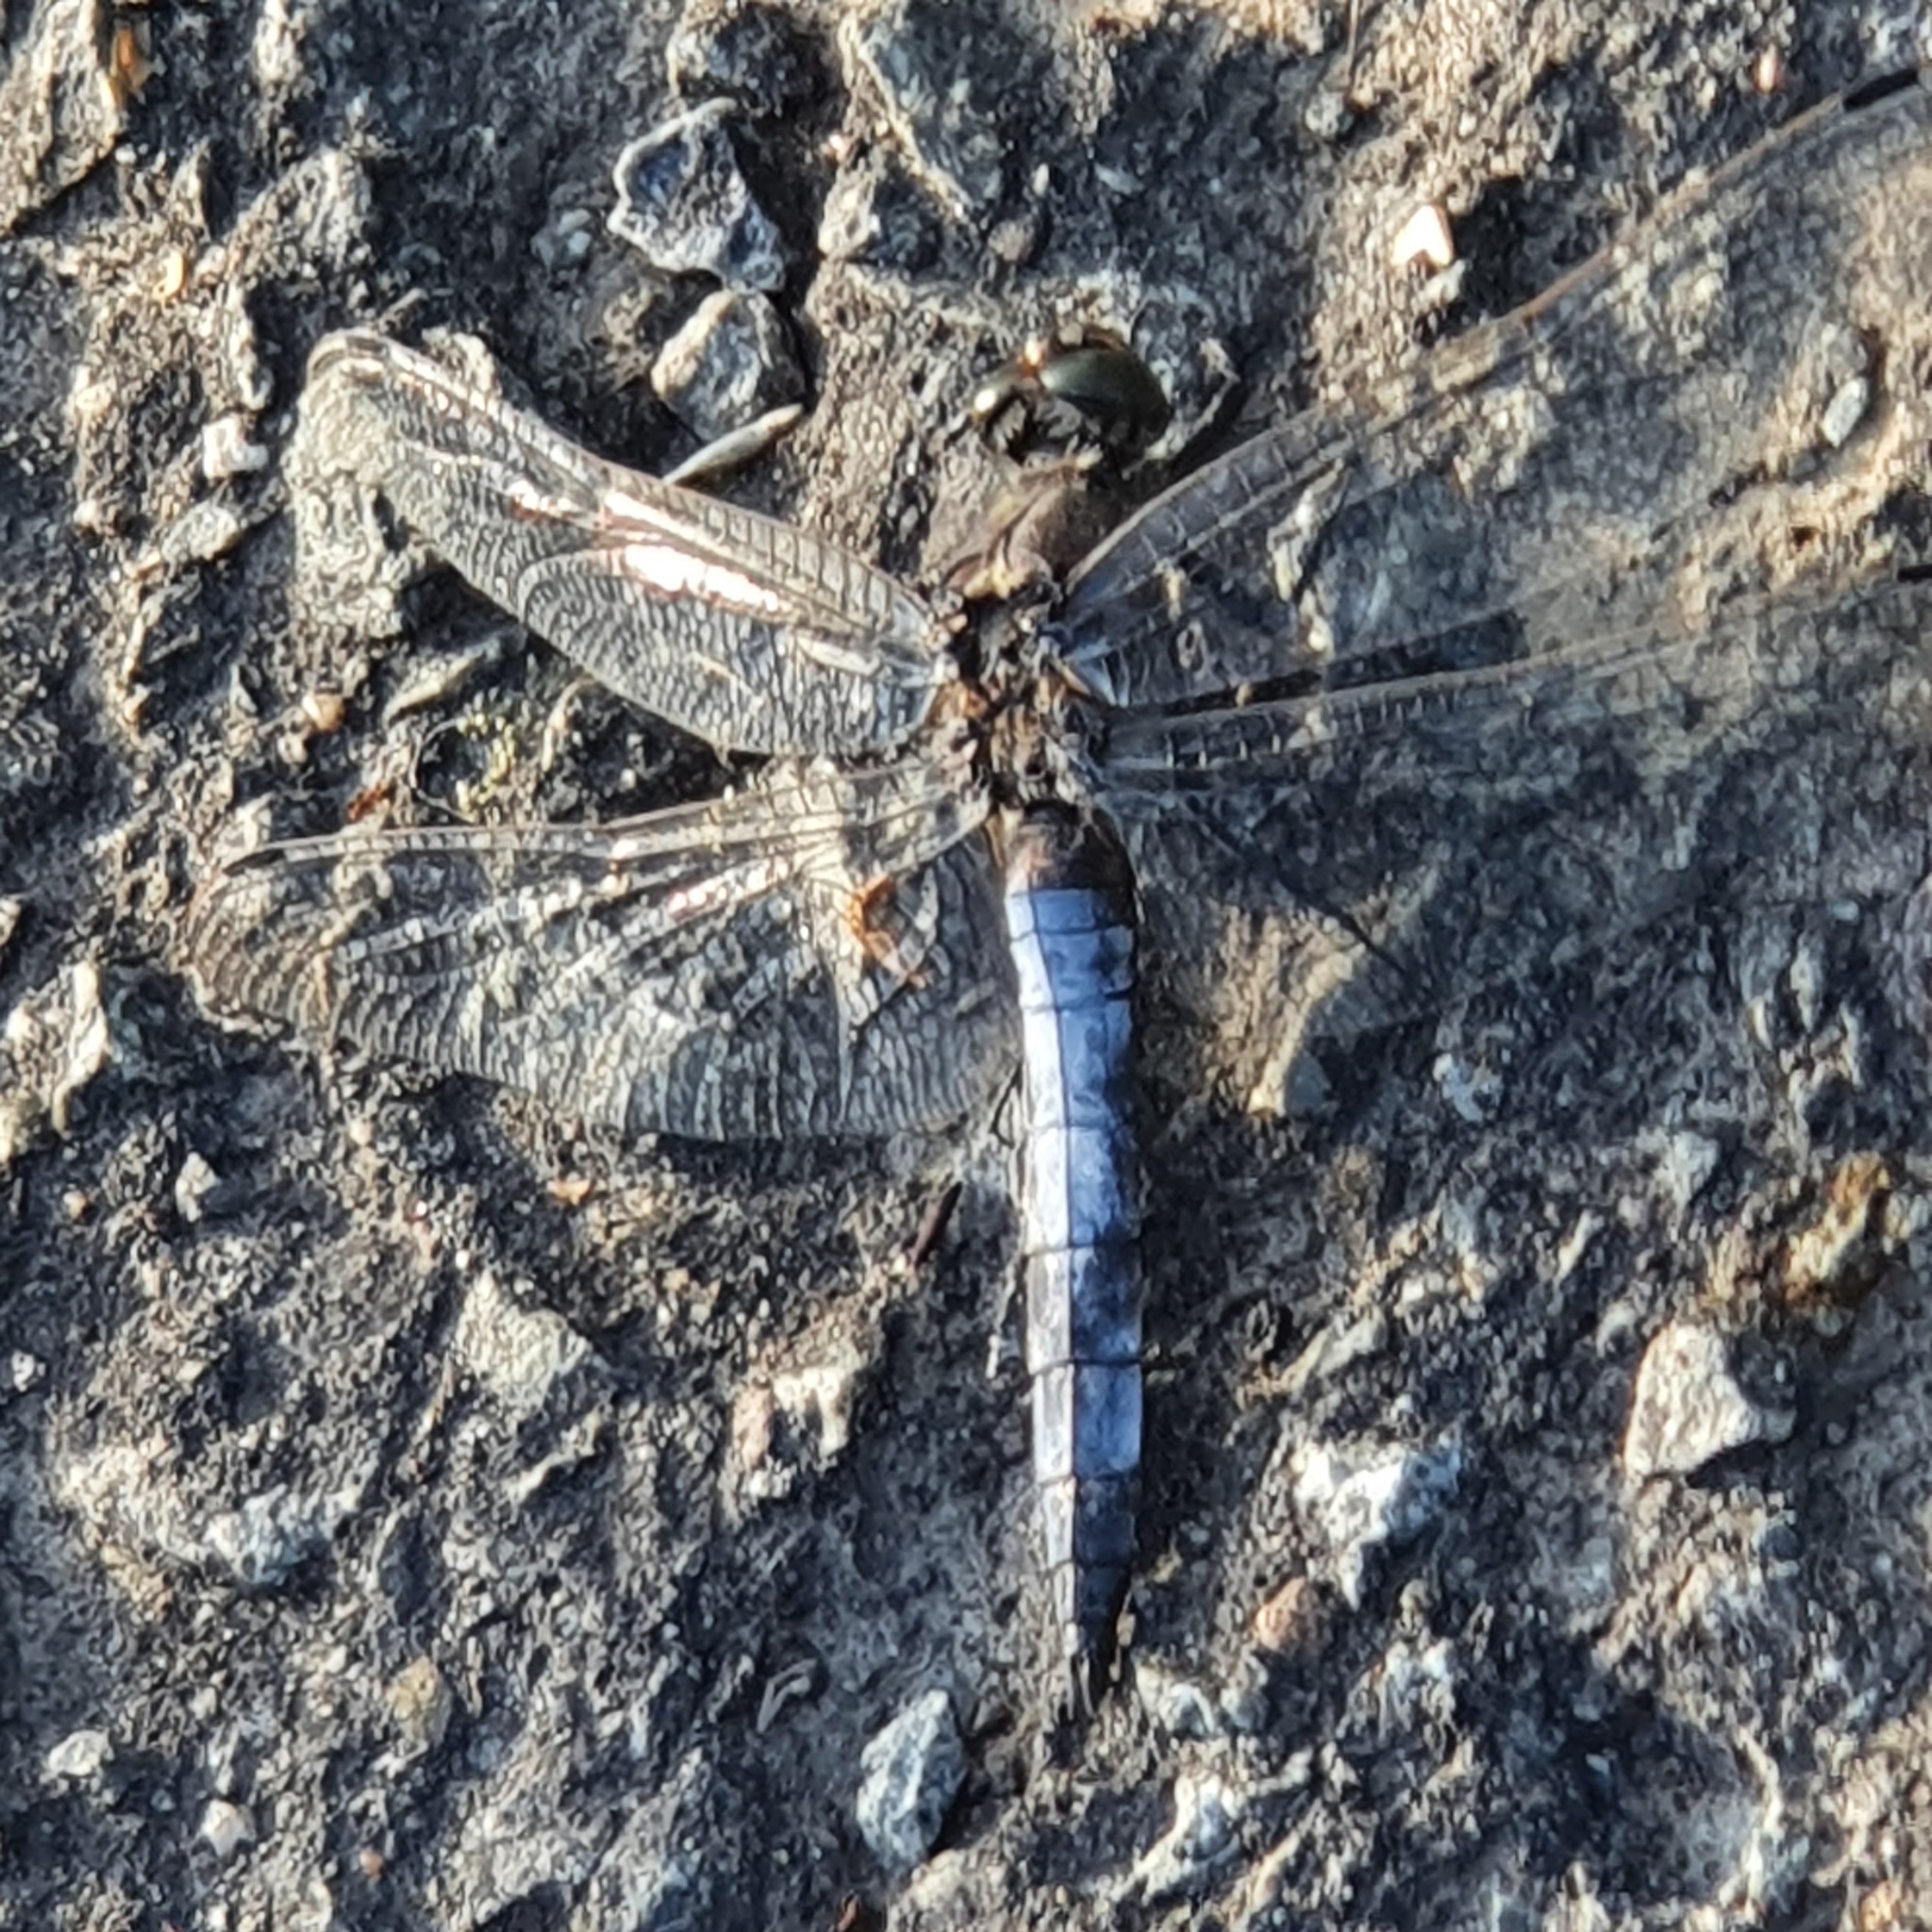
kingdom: Animalia
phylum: Arthropoda
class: Insecta
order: Odonata
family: Libellulidae
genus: Orthetrum
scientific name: Orthetrum cancellatum
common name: Black-tailed skimmer
